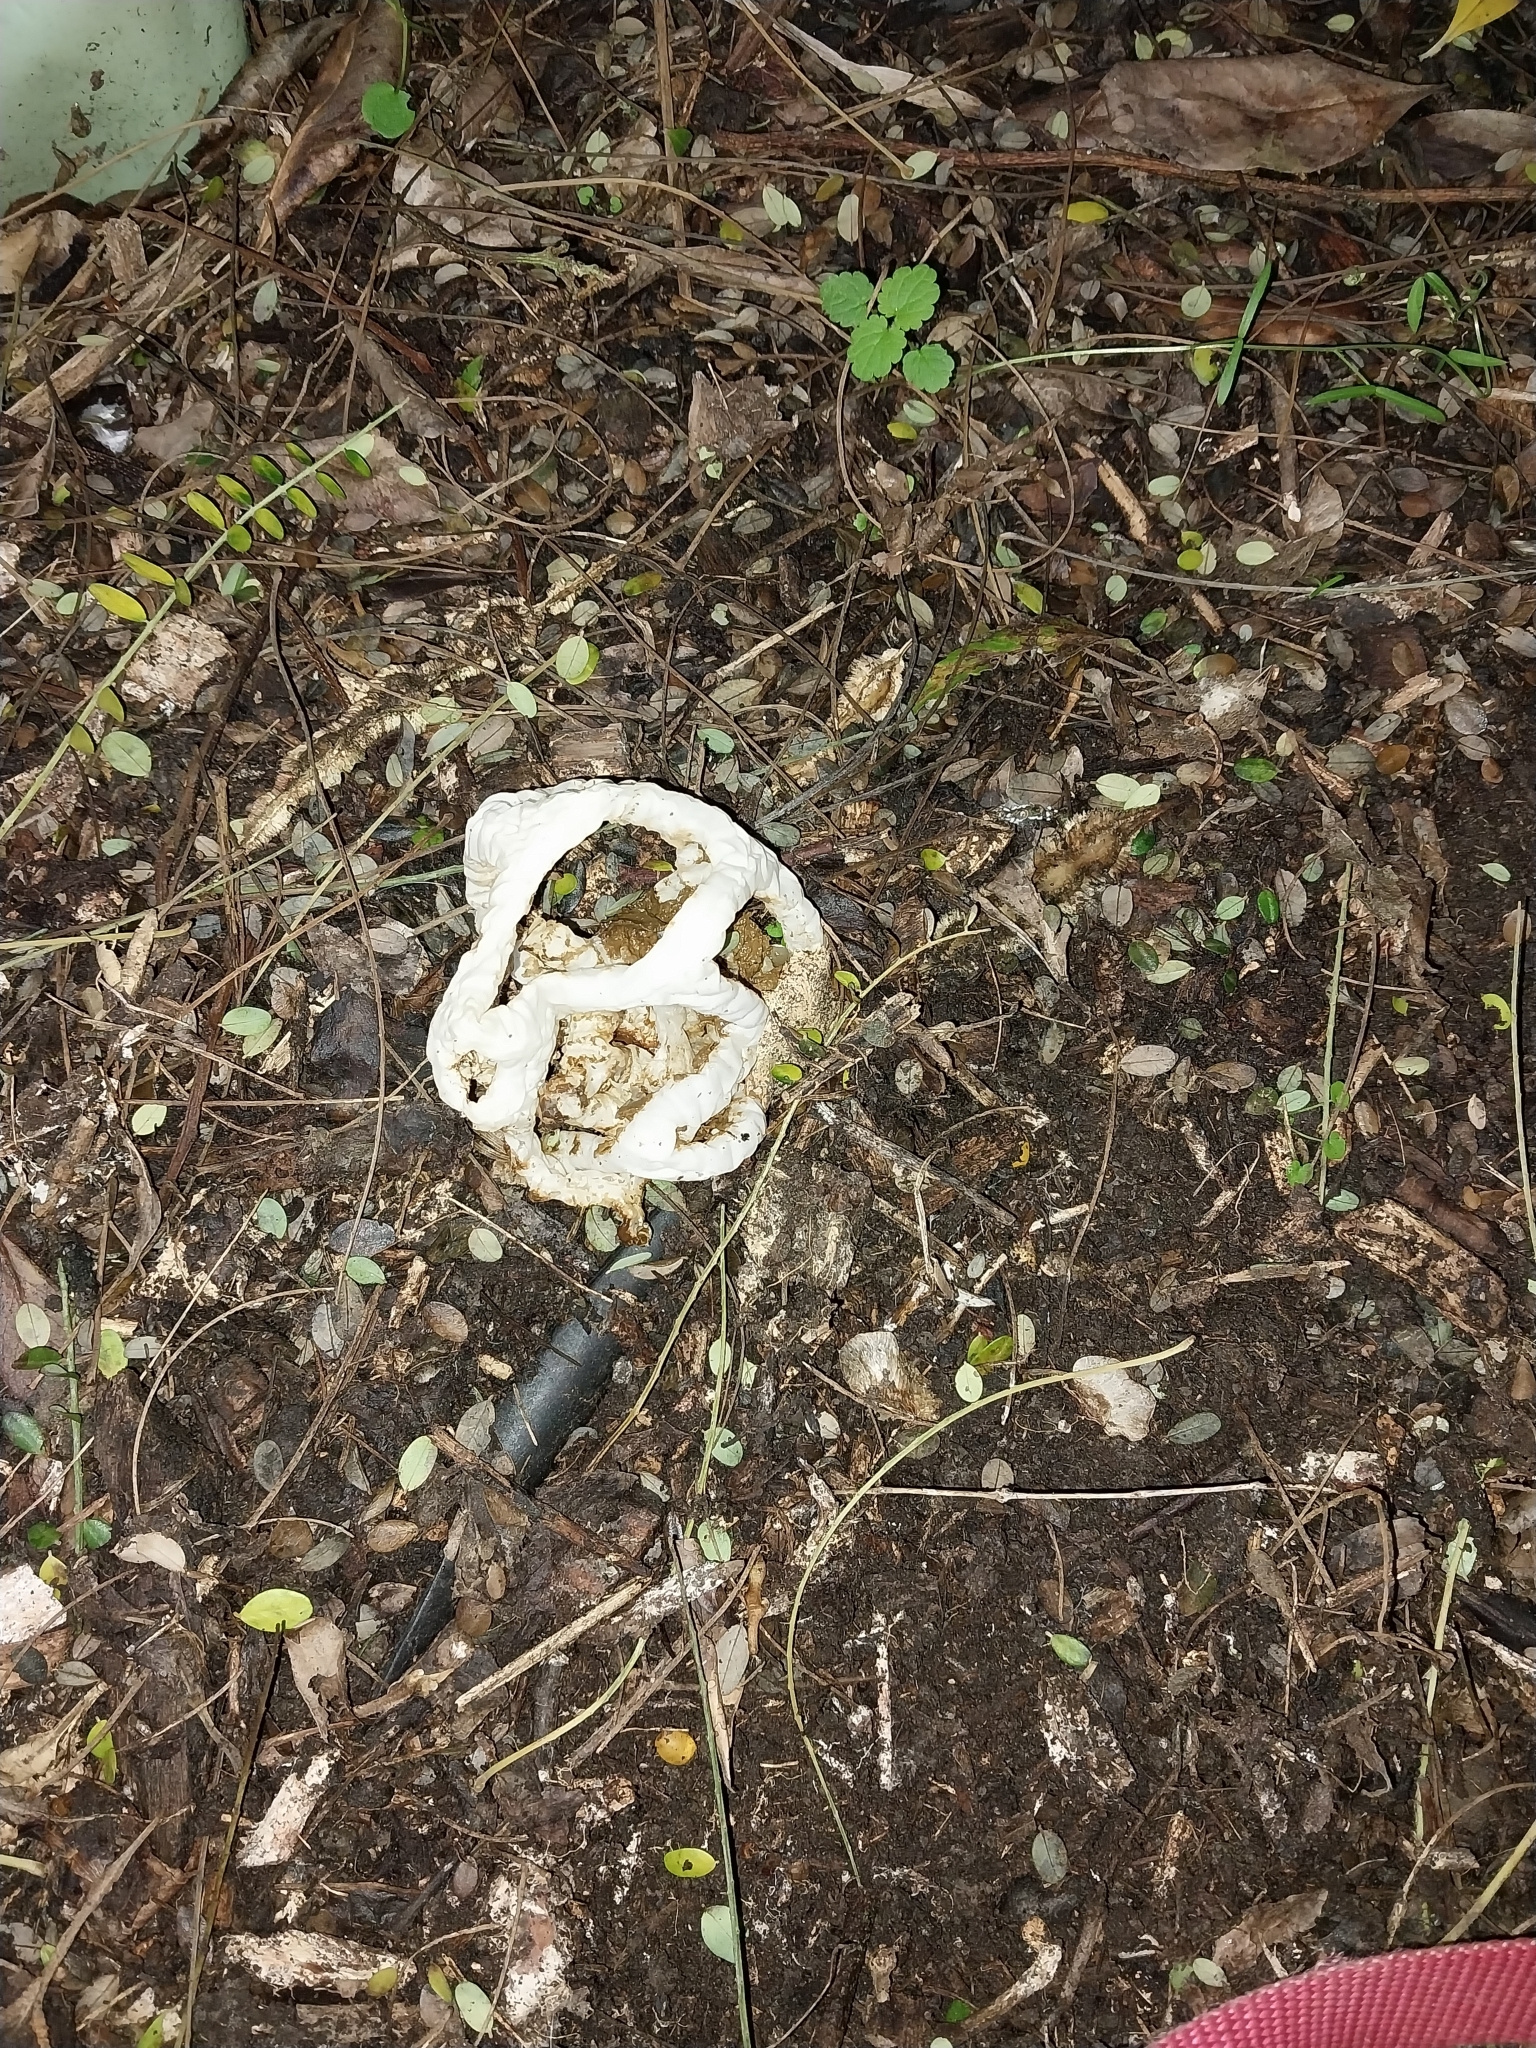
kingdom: Fungi
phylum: Basidiomycota
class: Agaricomycetes
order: Phallales
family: Phallaceae
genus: Ileodictyon
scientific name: Ileodictyon cibarium
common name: Basket fungus
